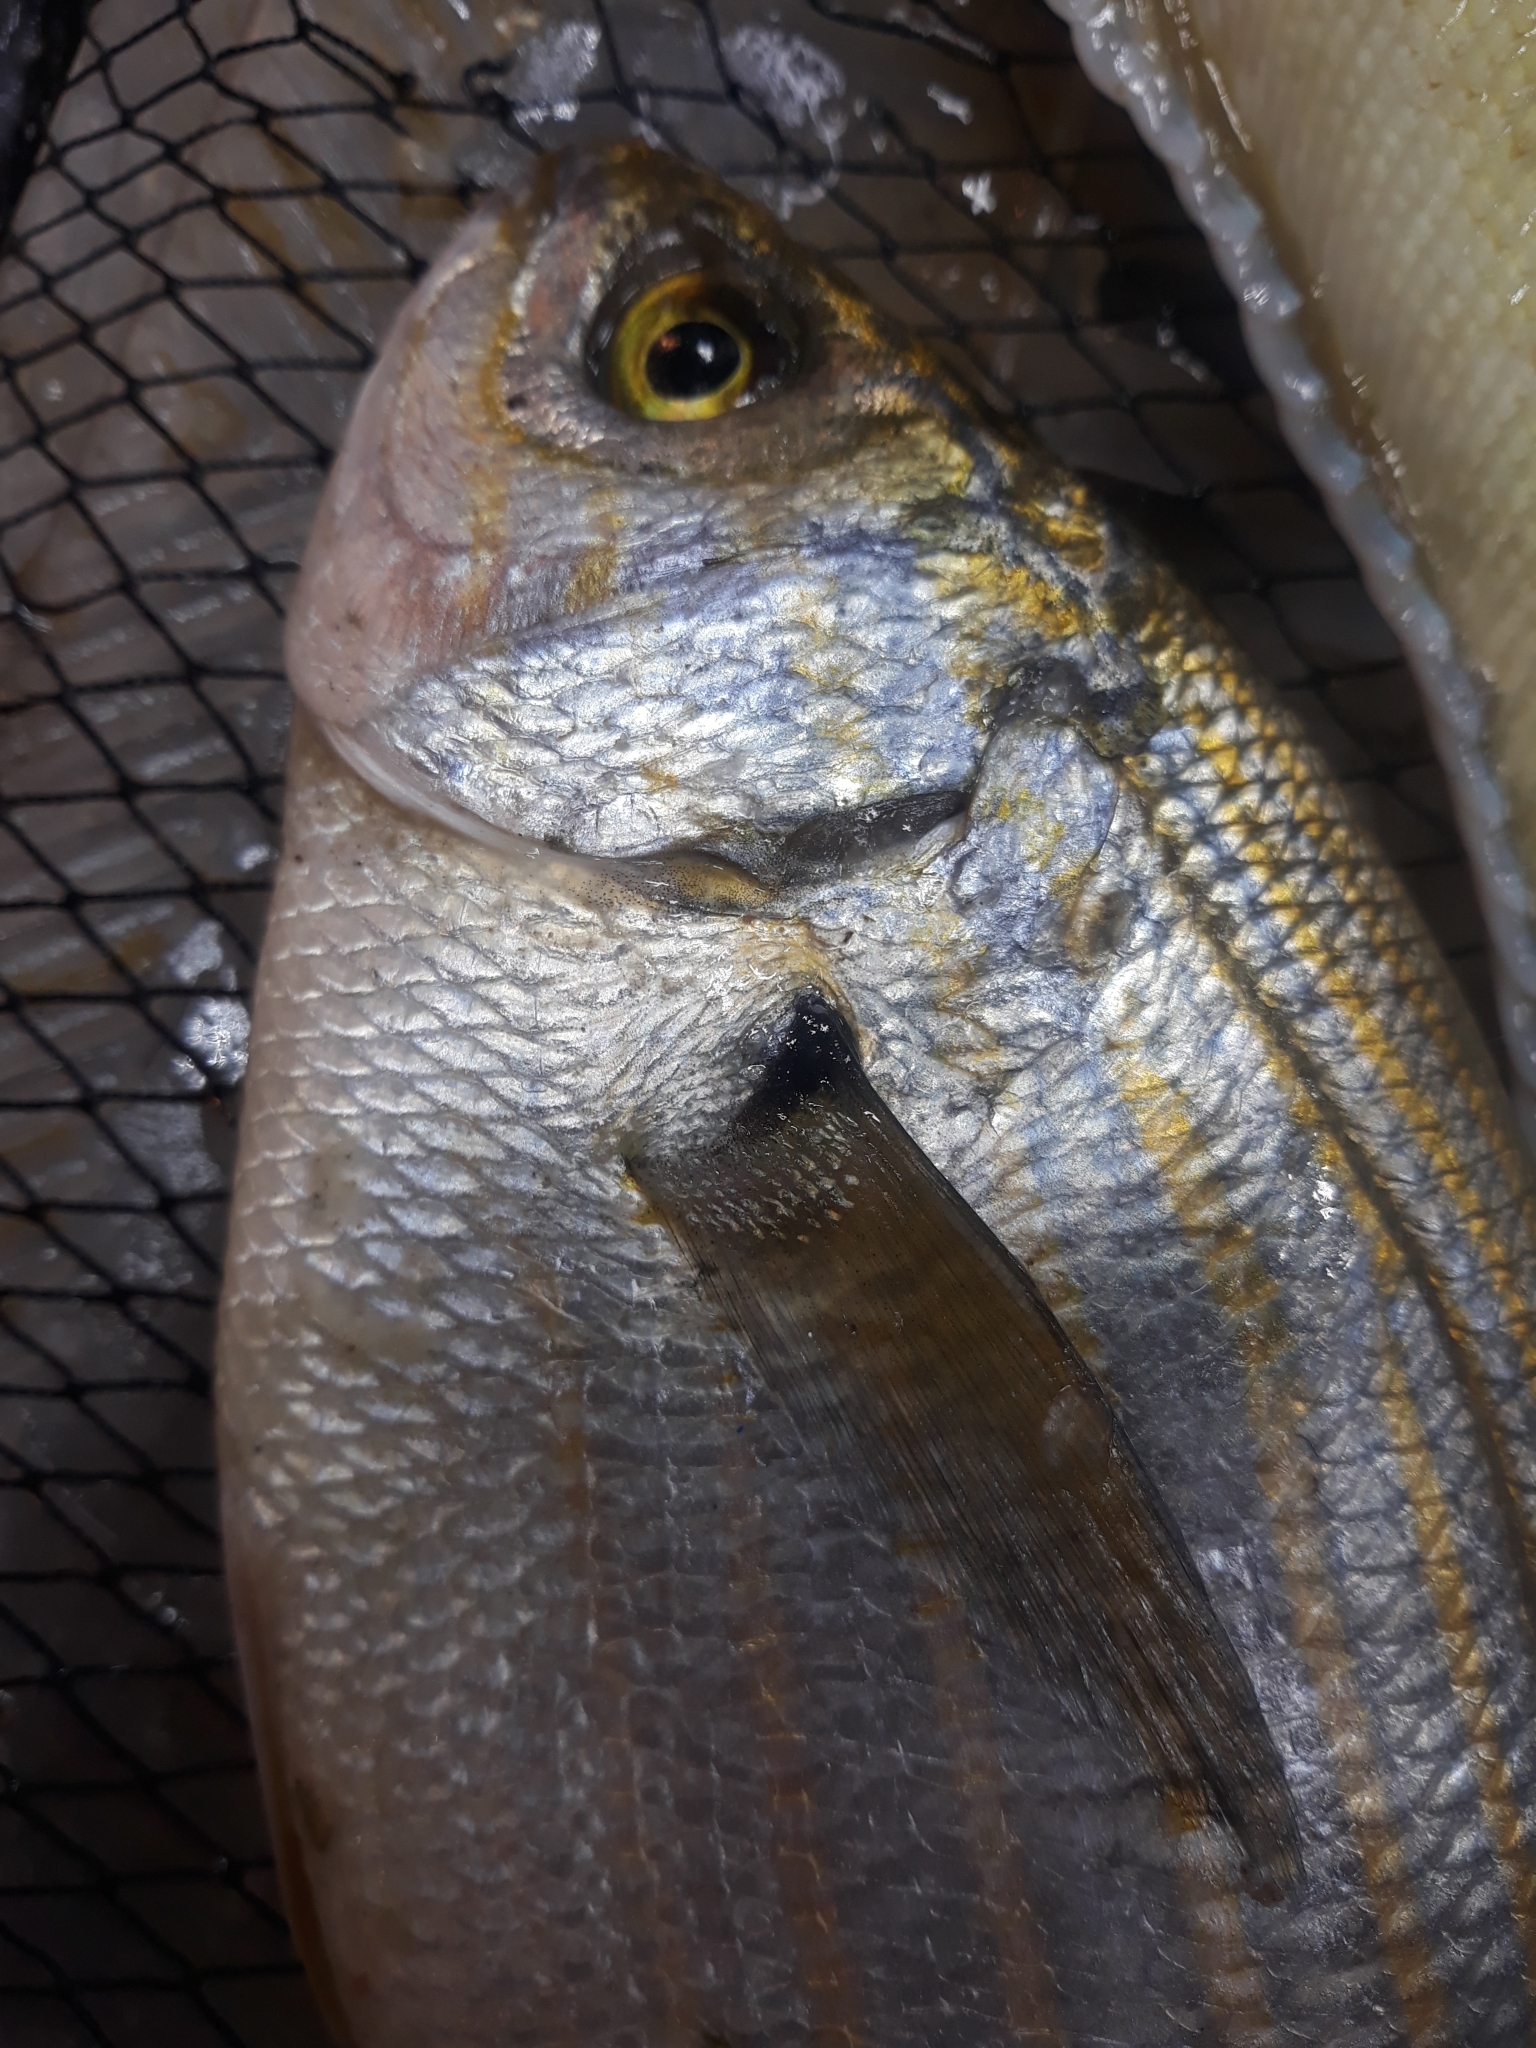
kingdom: Animalia
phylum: Chordata
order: Perciformes
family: Sparidae
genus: Sarpa
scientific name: Sarpa salpa
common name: Salema
